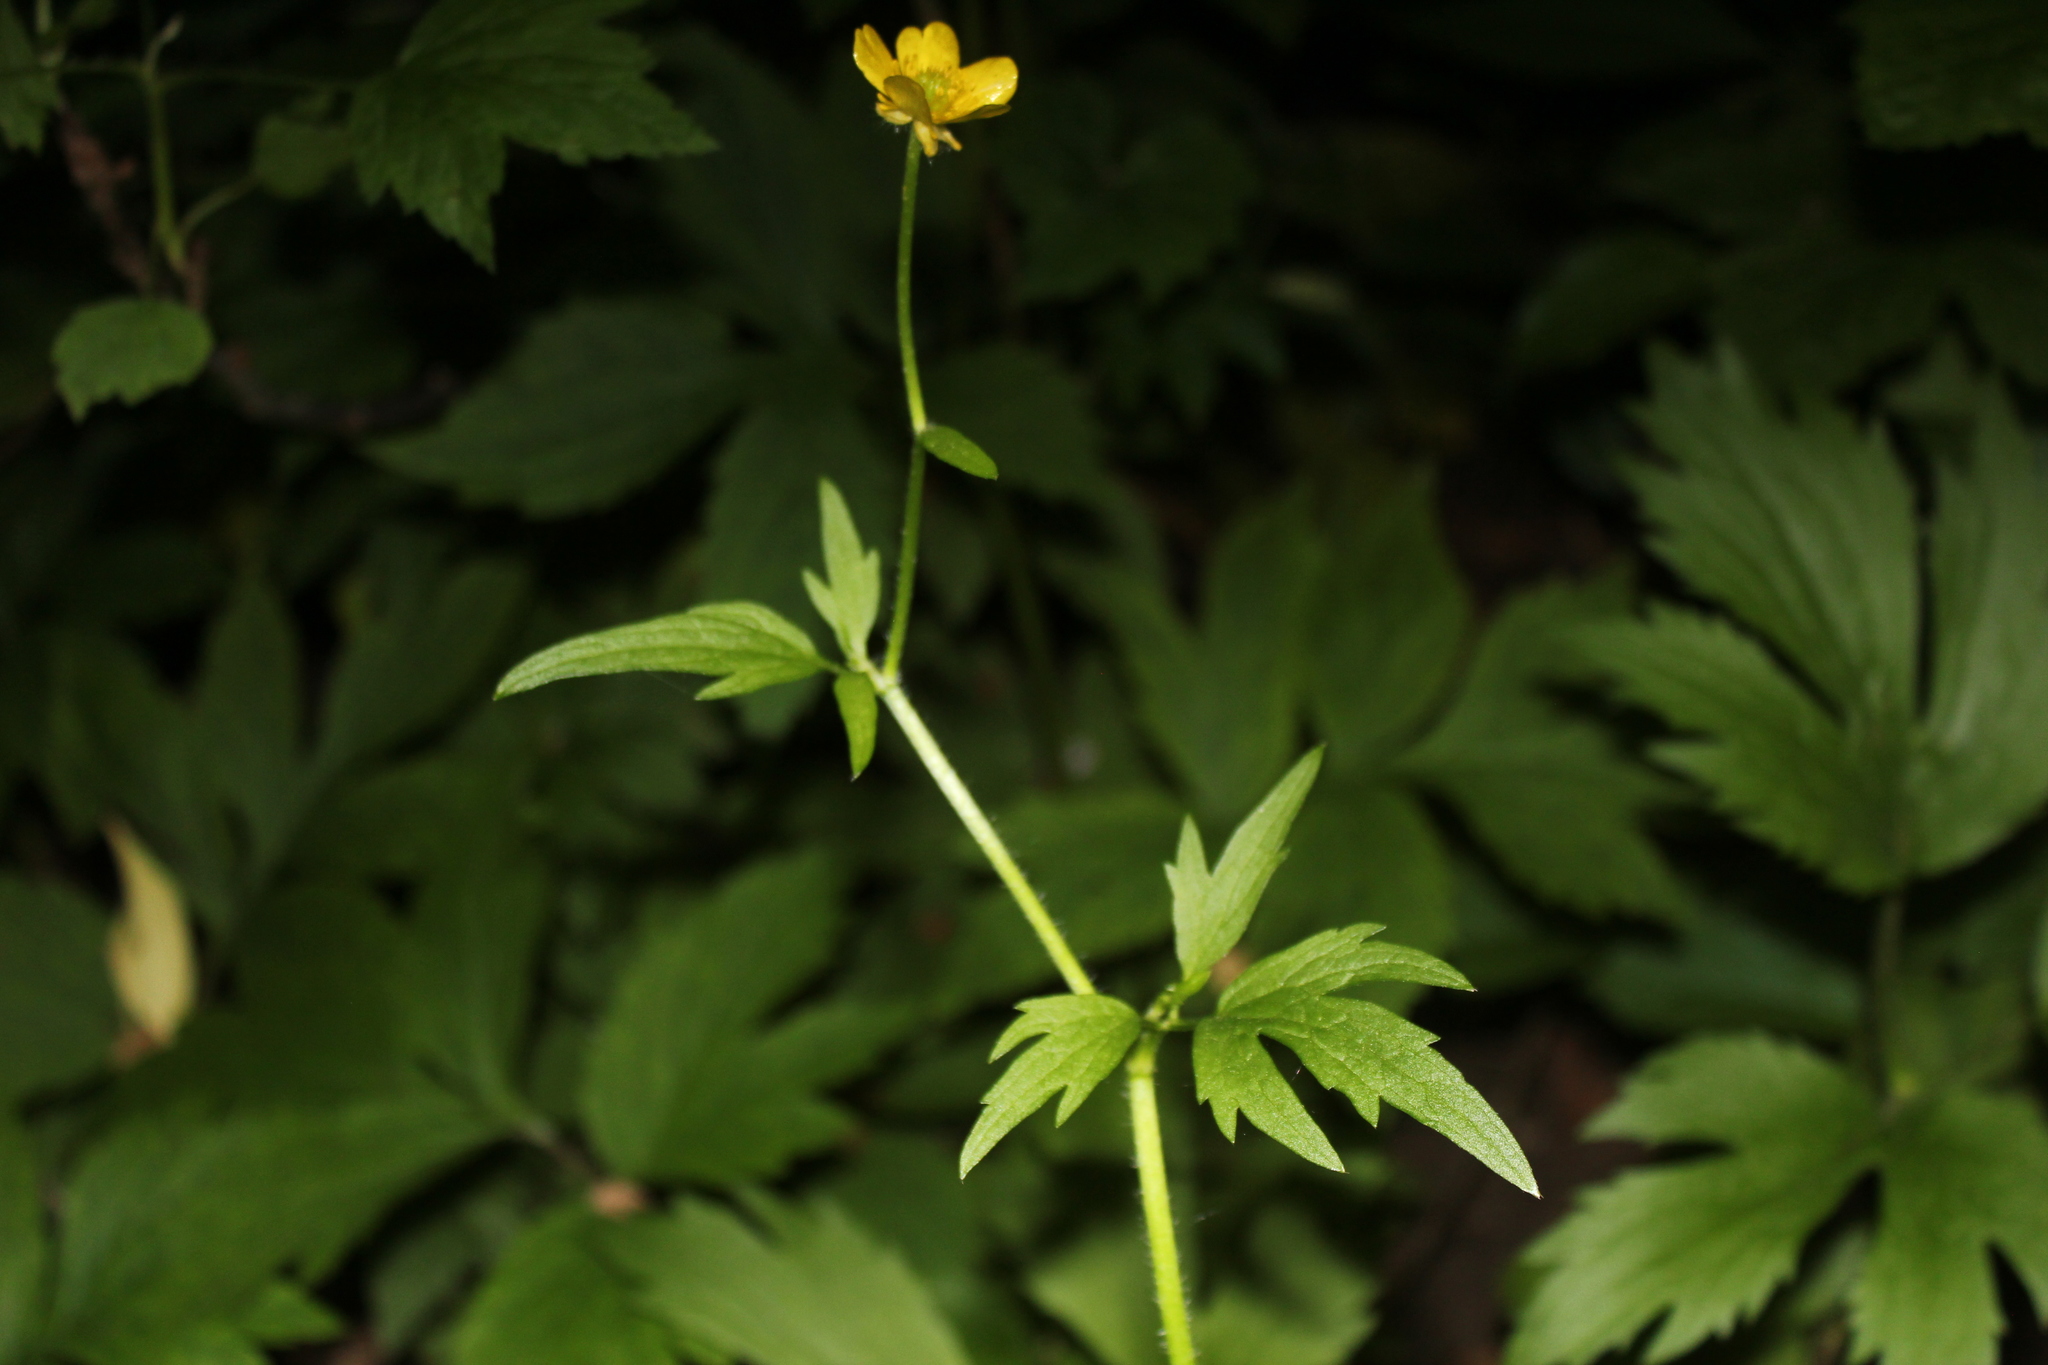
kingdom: Plantae
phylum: Tracheophyta
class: Magnoliopsida
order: Ranunculales
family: Ranunculaceae
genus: Ranunculus
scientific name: Ranunculus hispidus
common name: Bristly buttercup
